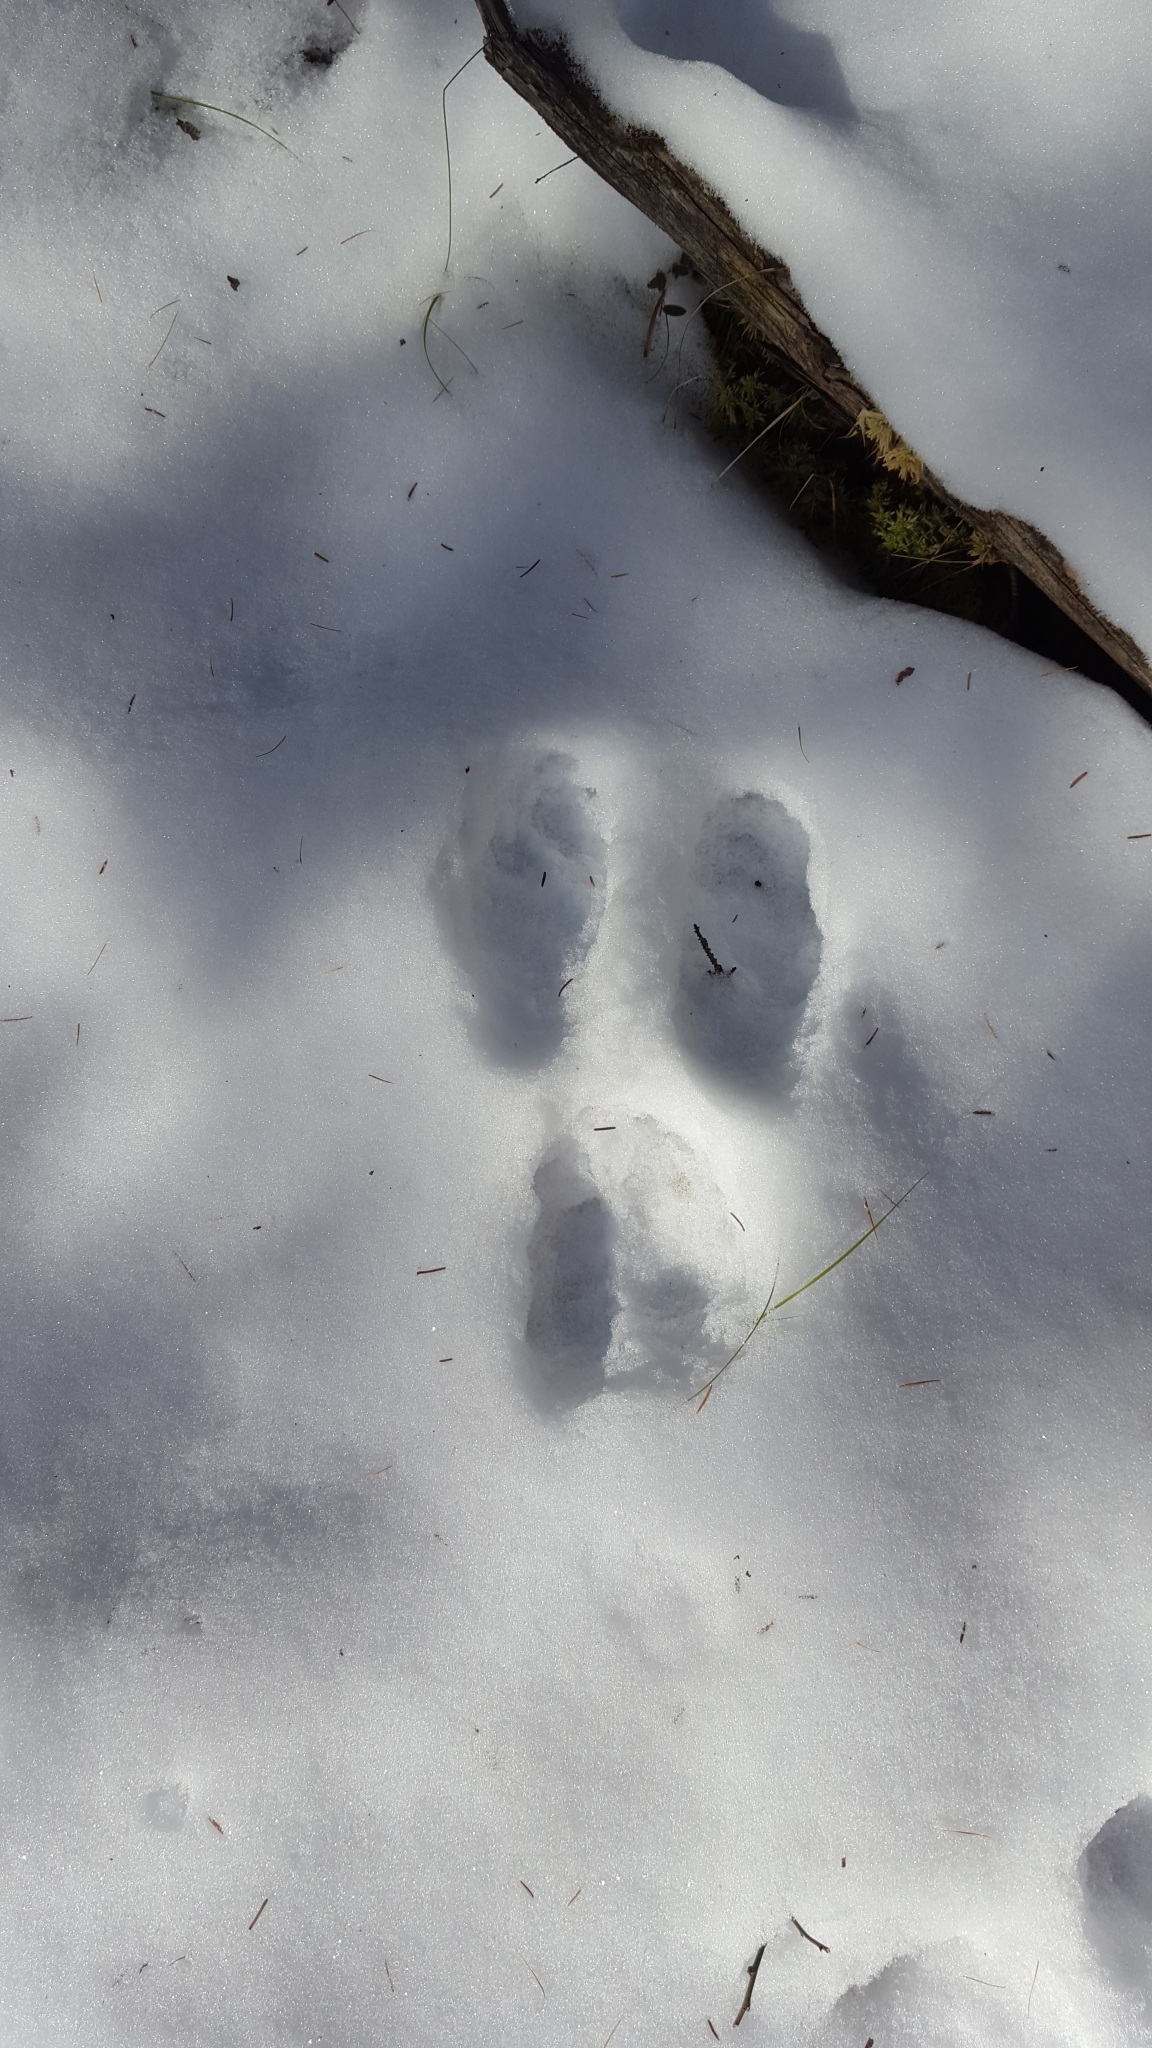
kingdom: Animalia
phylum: Chordata
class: Mammalia
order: Lagomorpha
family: Leporidae
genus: Lepus
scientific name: Lepus americanus
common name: Snowshoe hare
